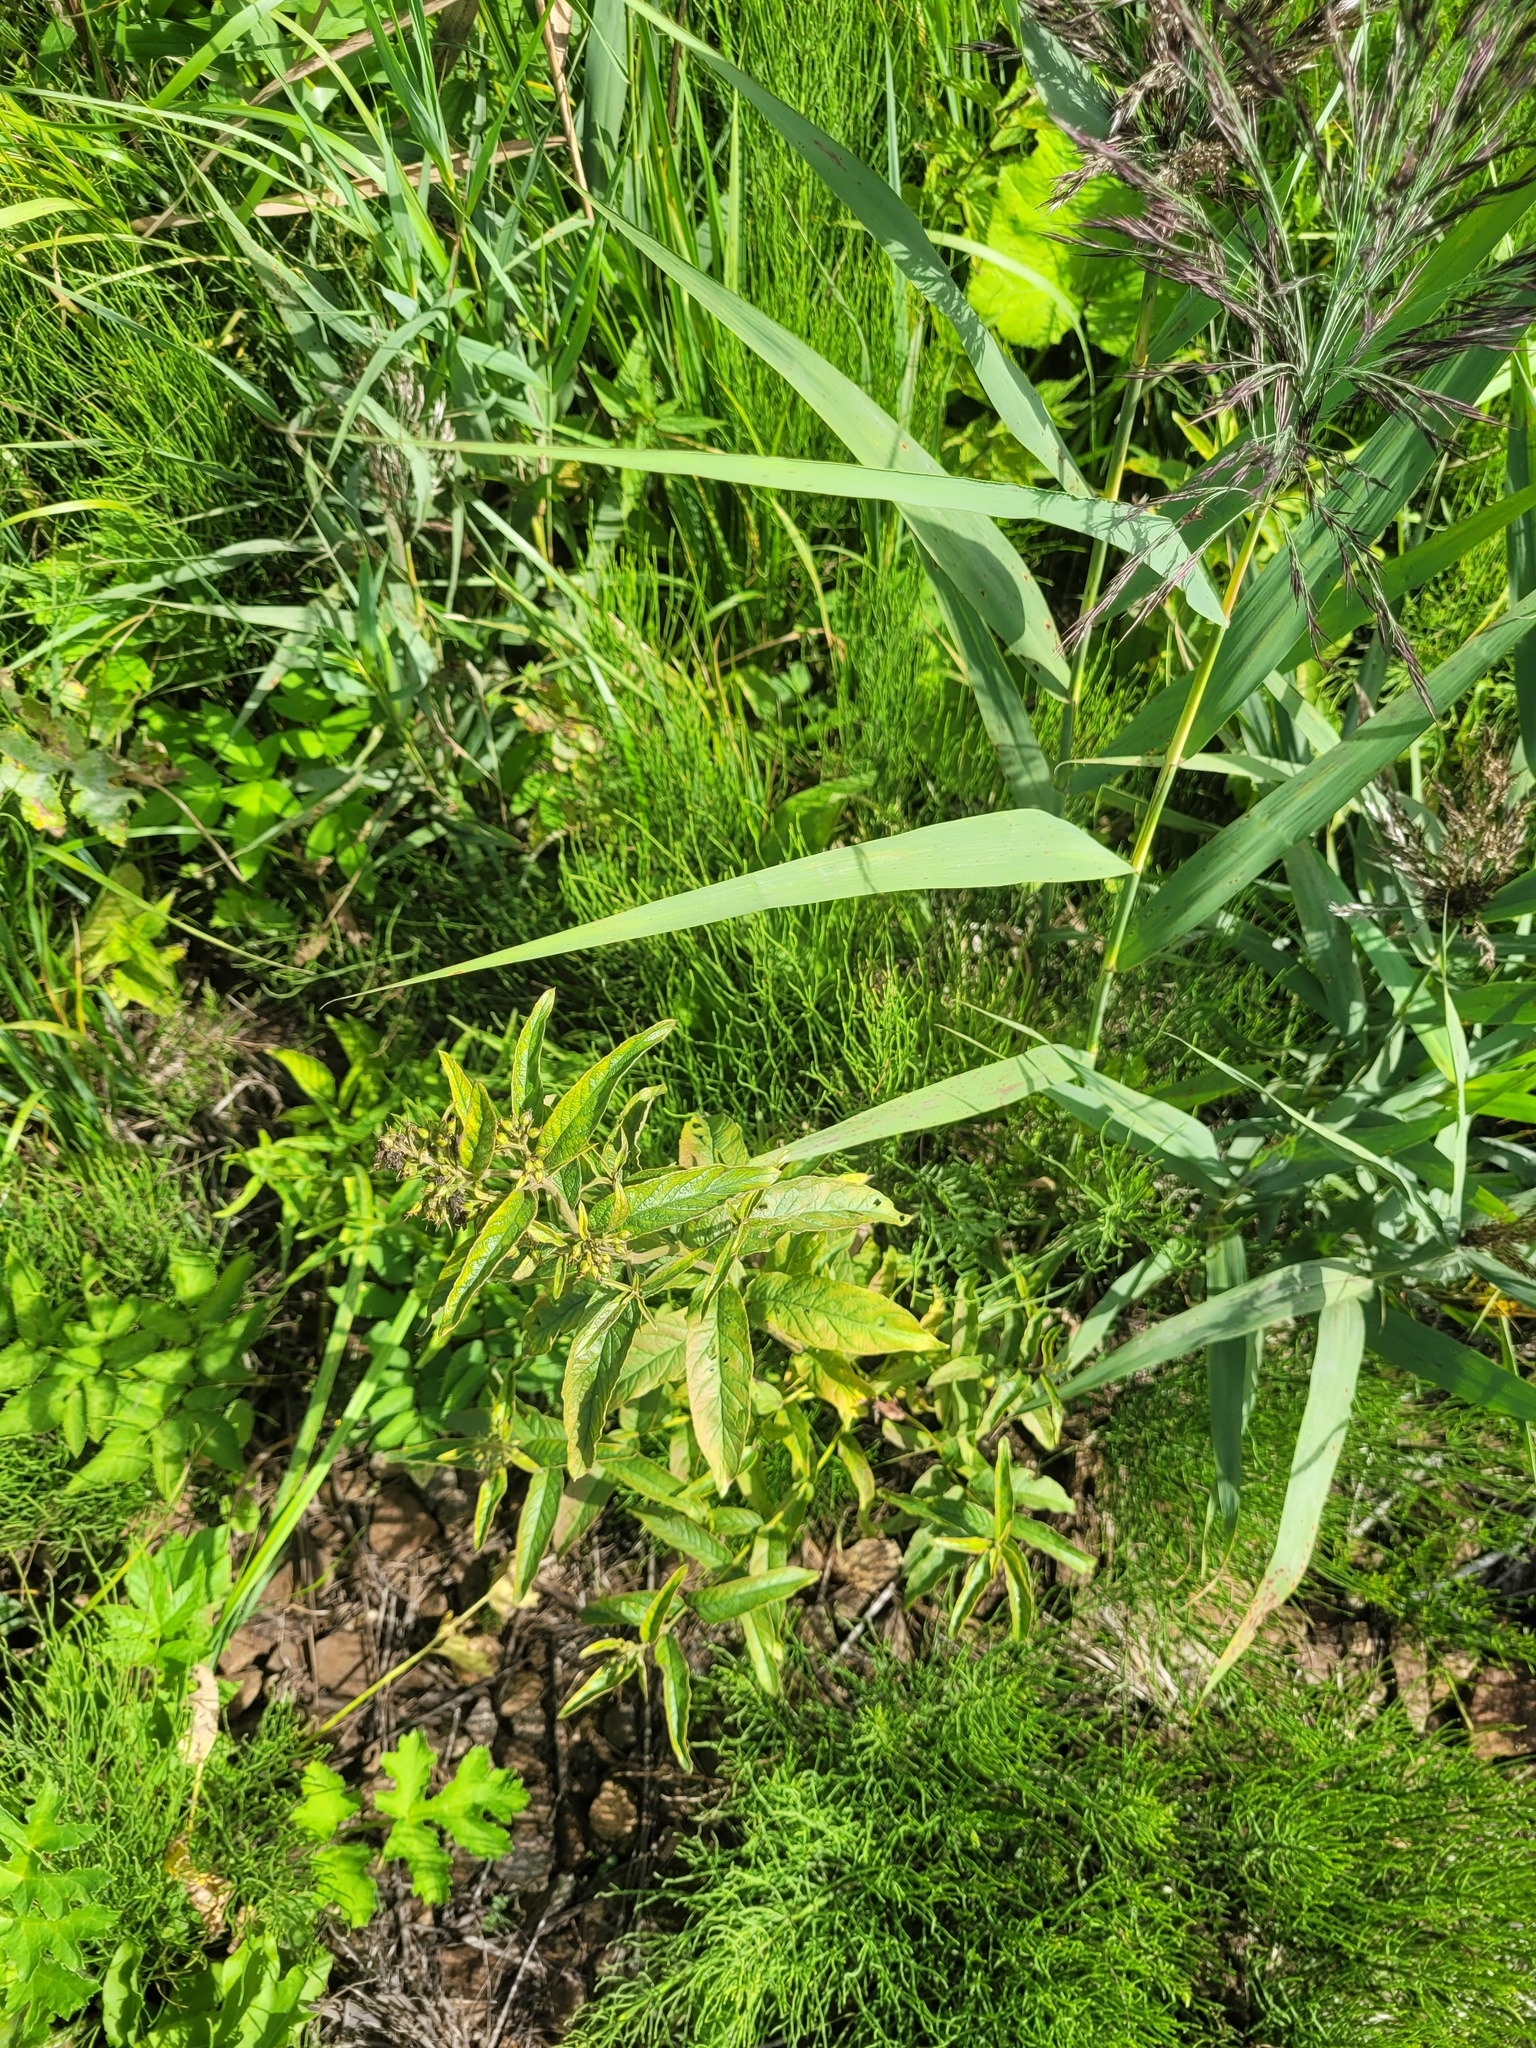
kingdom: Plantae
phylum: Tracheophyta
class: Magnoliopsida
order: Ericales
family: Primulaceae
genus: Lysimachia
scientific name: Lysimachia vulgaris
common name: Yellow loosestrife
